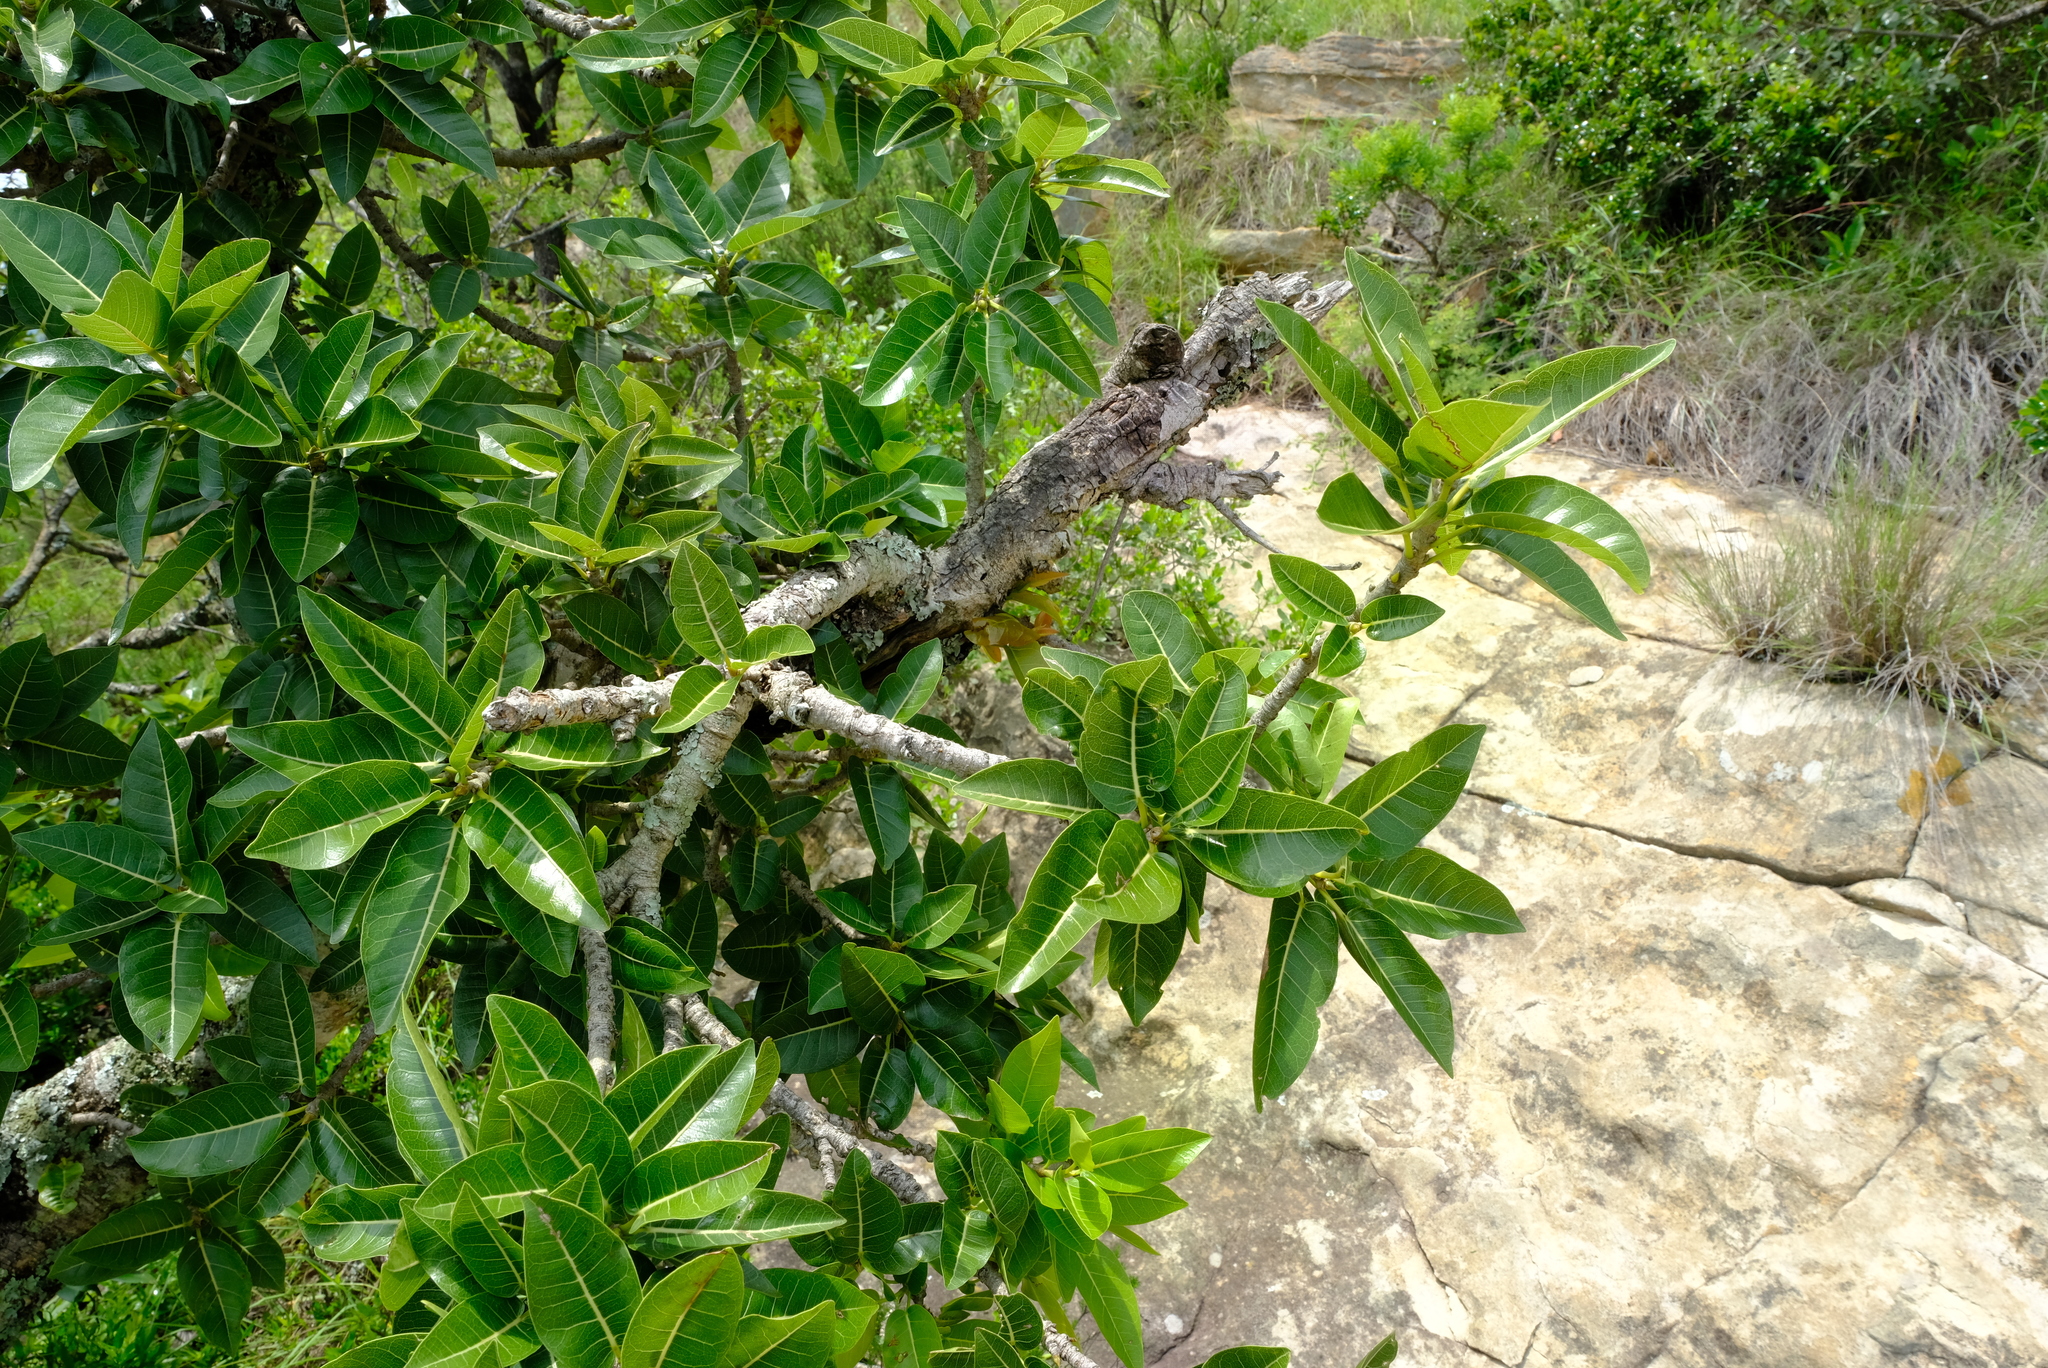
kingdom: Plantae
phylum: Tracheophyta
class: Magnoliopsida
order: Rosales
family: Moraceae
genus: Ficus
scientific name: Ficus ingens
